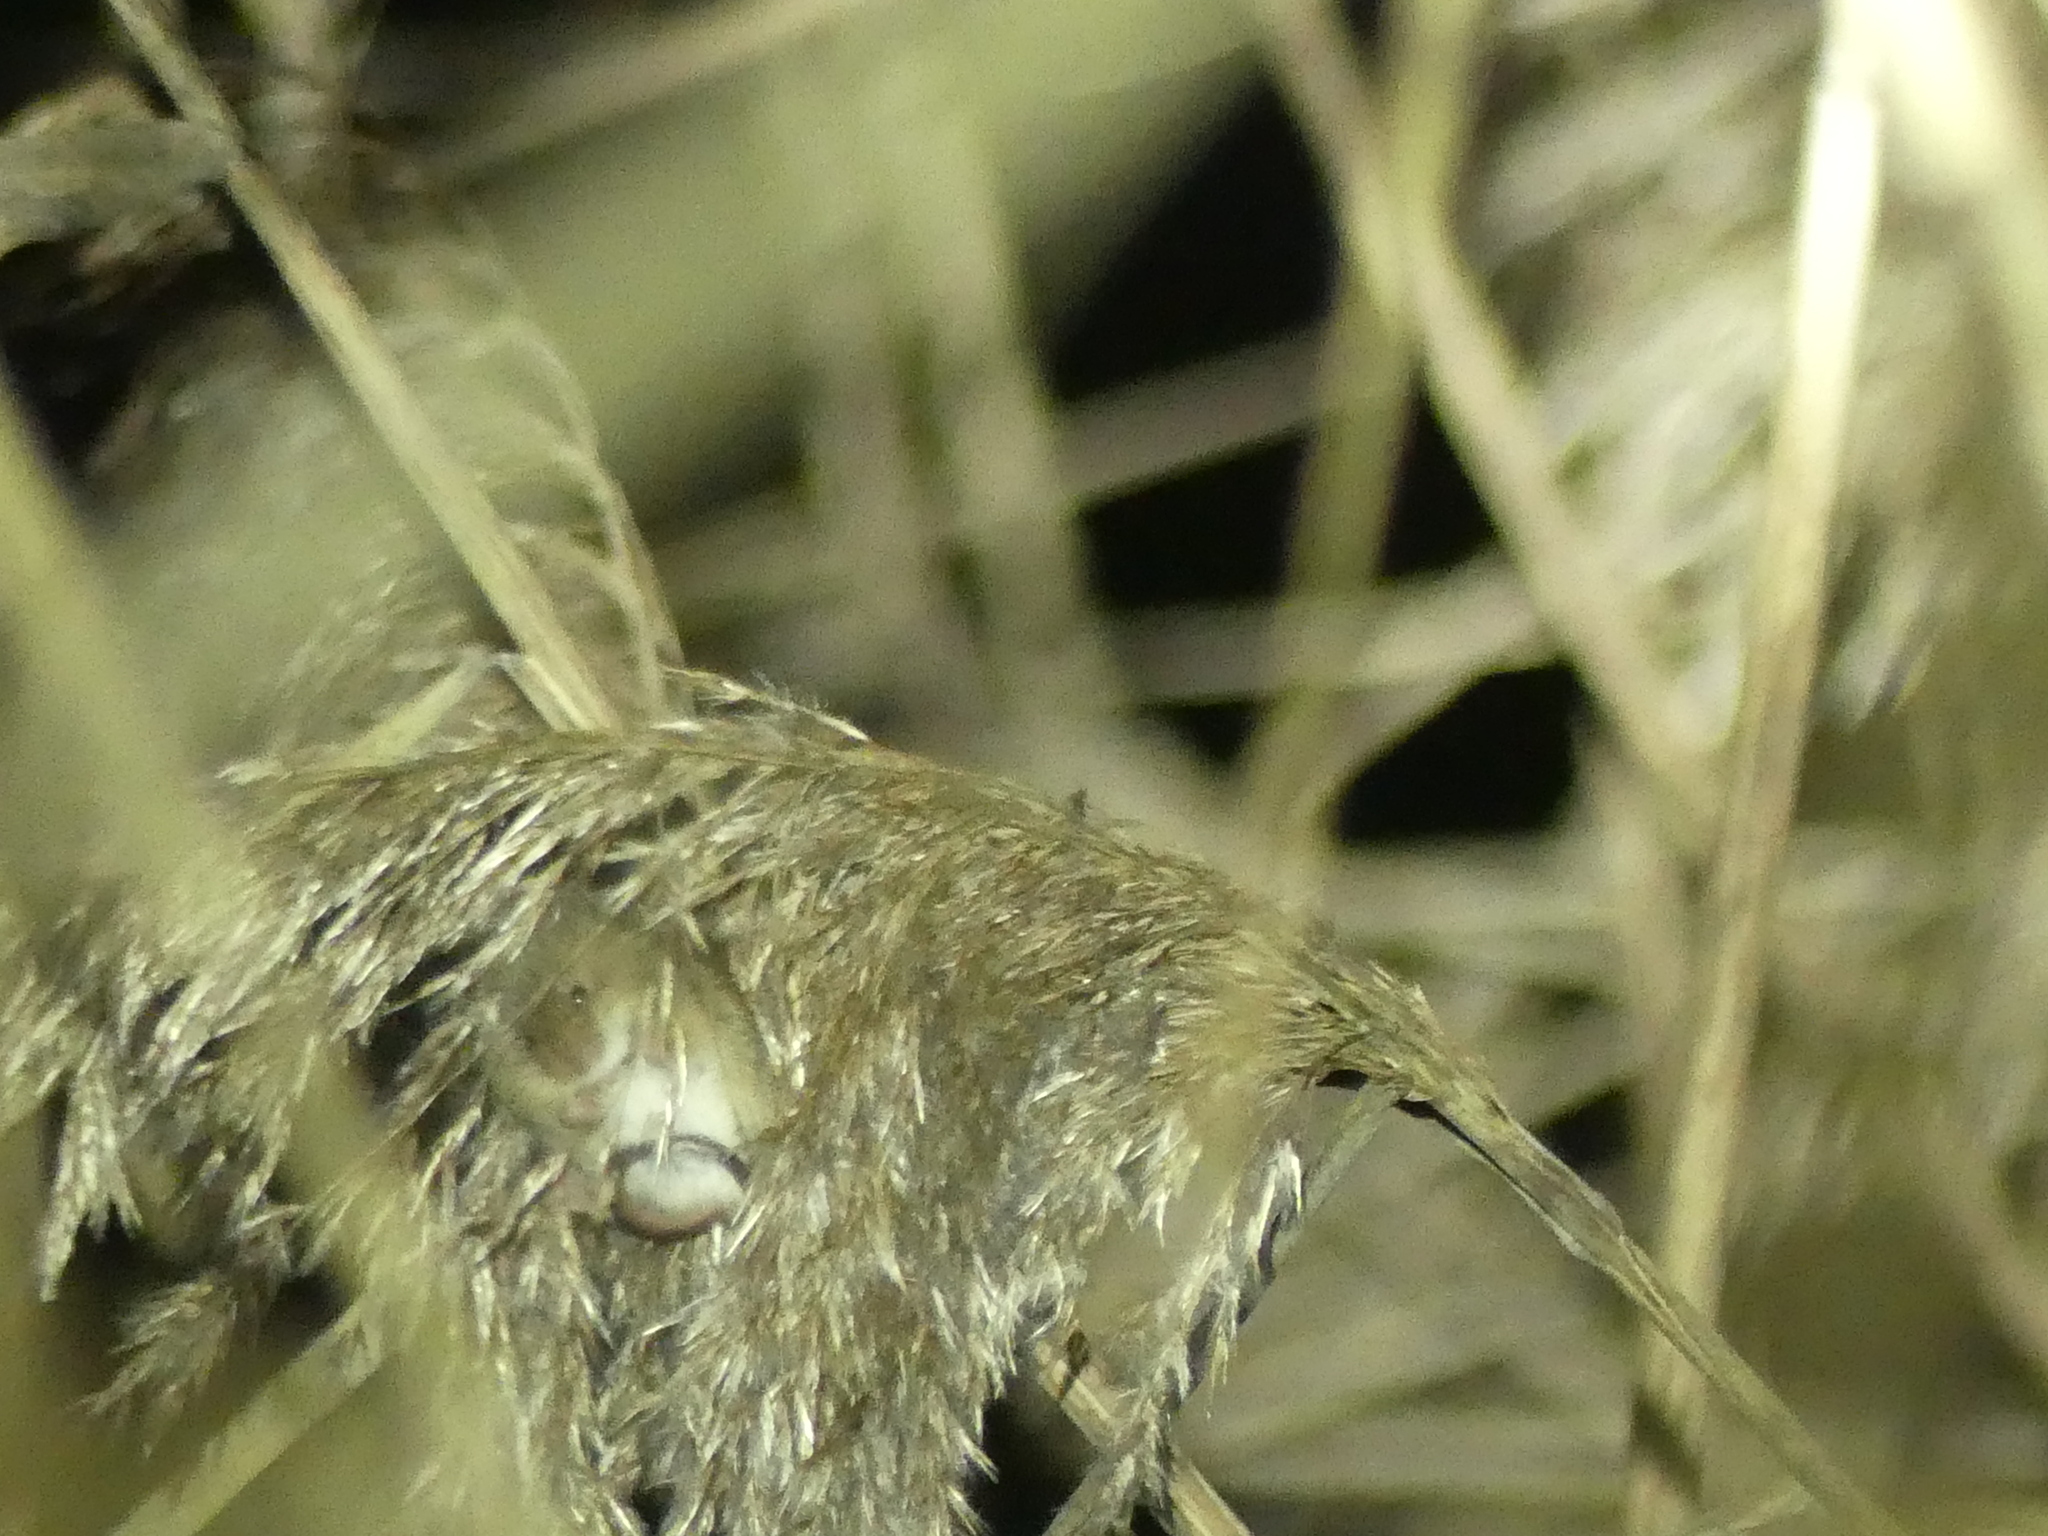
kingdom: Animalia
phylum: Chordata
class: Mammalia
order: Rodentia
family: Muridae
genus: Micromys
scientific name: Micromys minutus
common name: Harvest mouse
